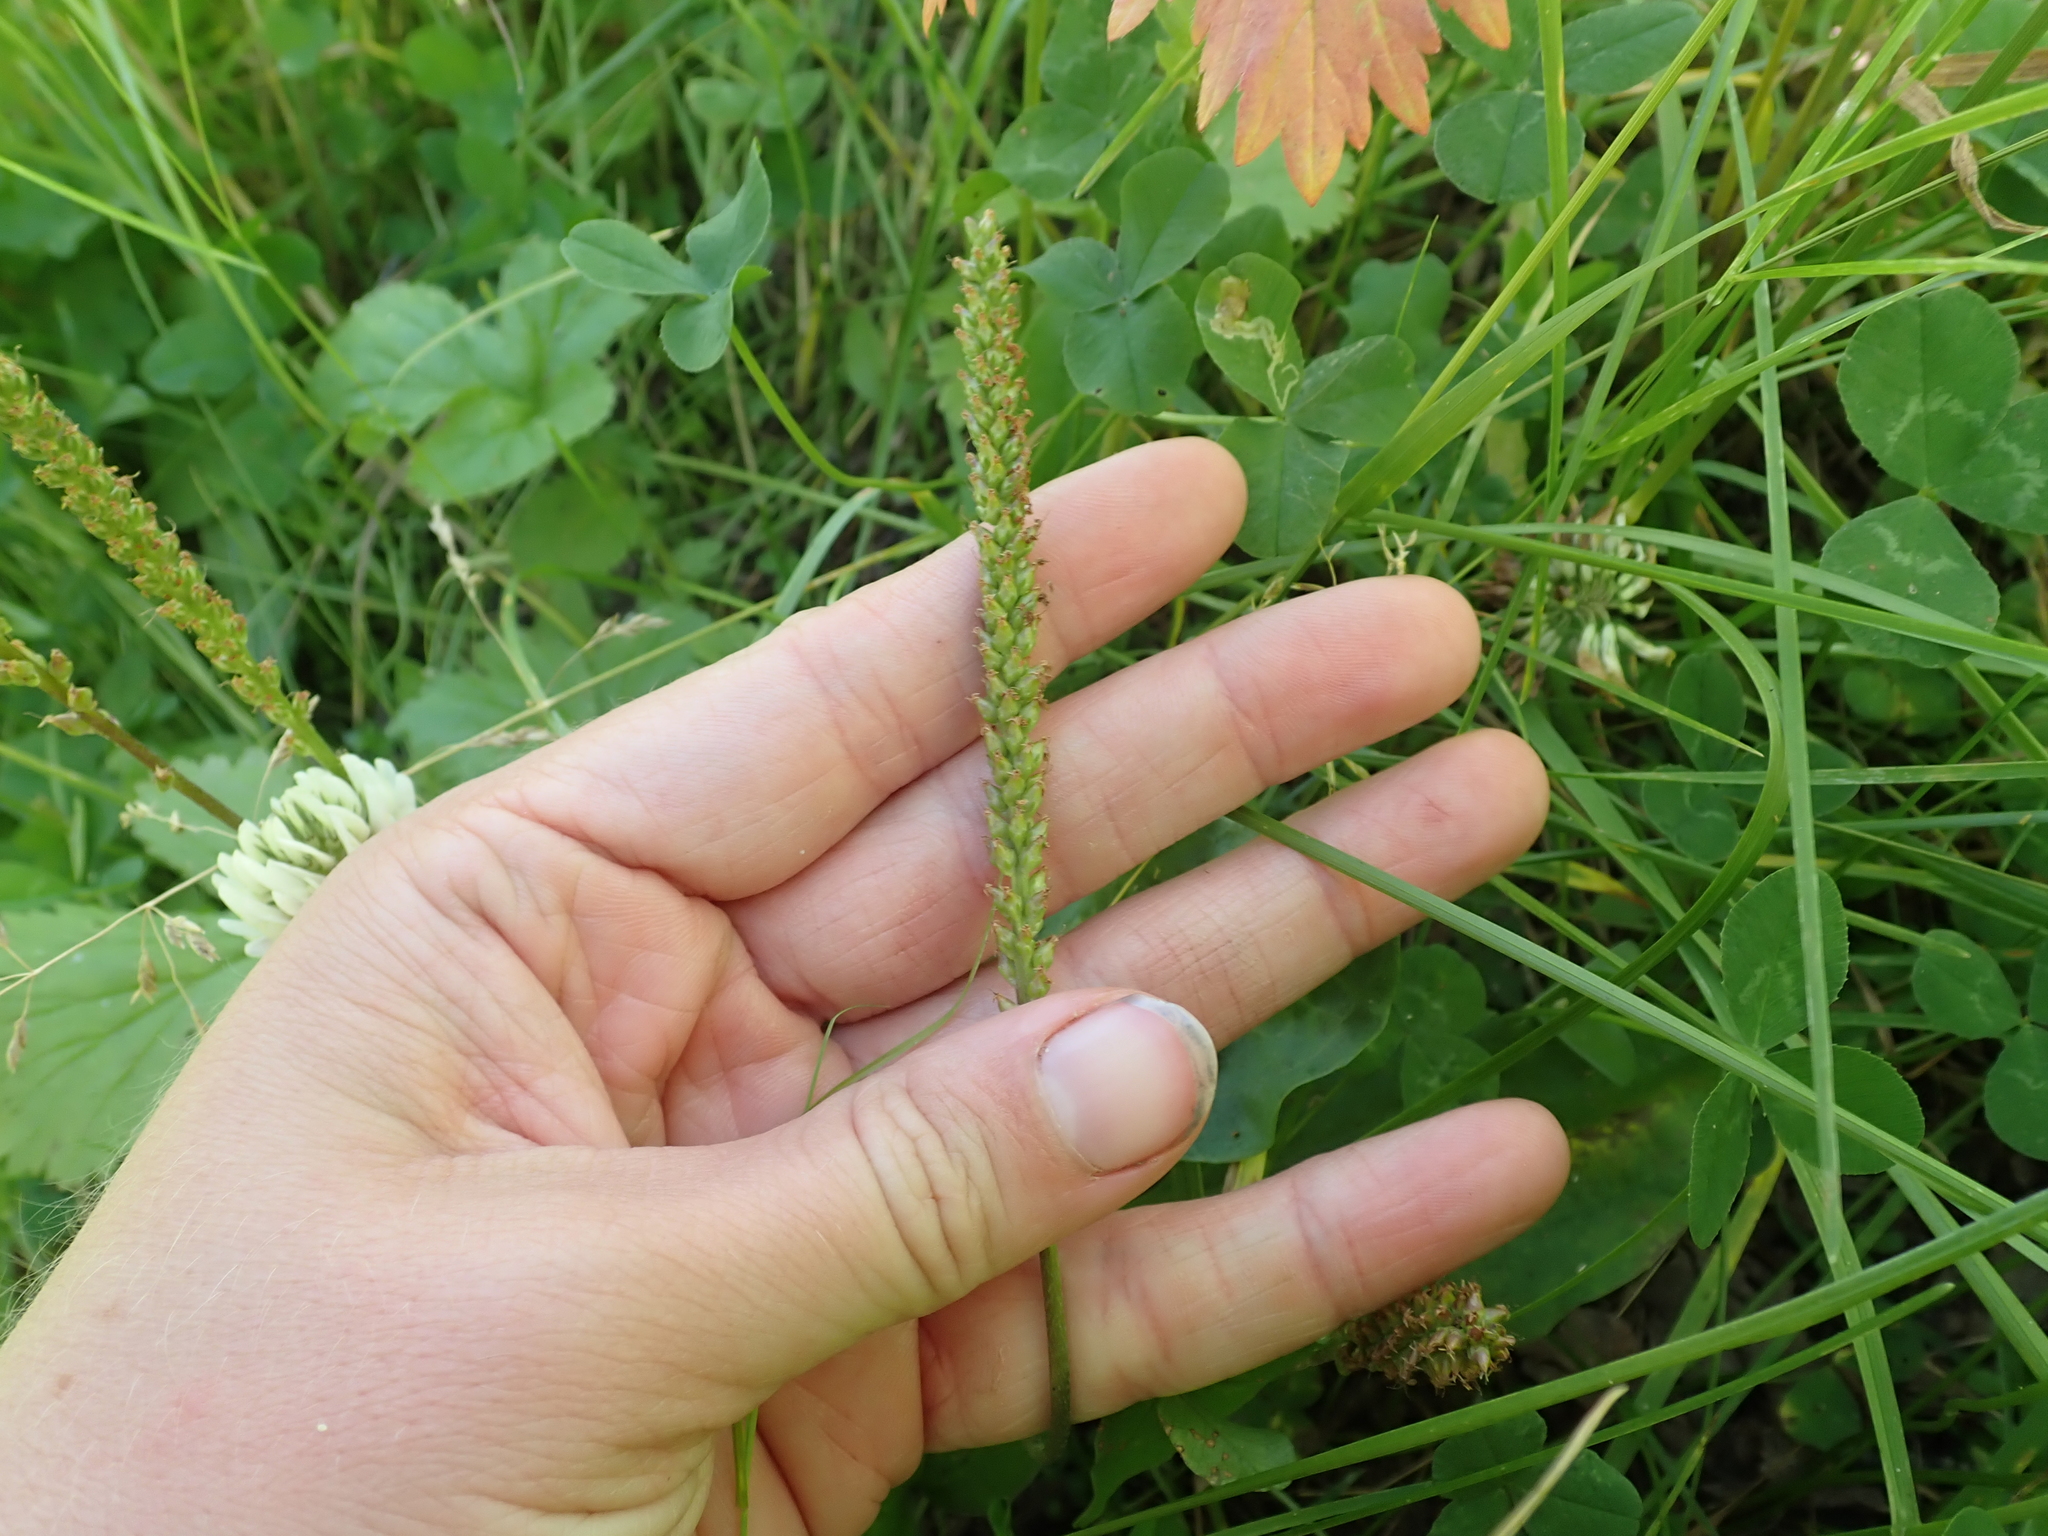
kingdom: Plantae
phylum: Tracheophyta
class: Magnoliopsida
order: Lamiales
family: Plantaginaceae
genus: Plantago
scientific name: Plantago major
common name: Common plantain
